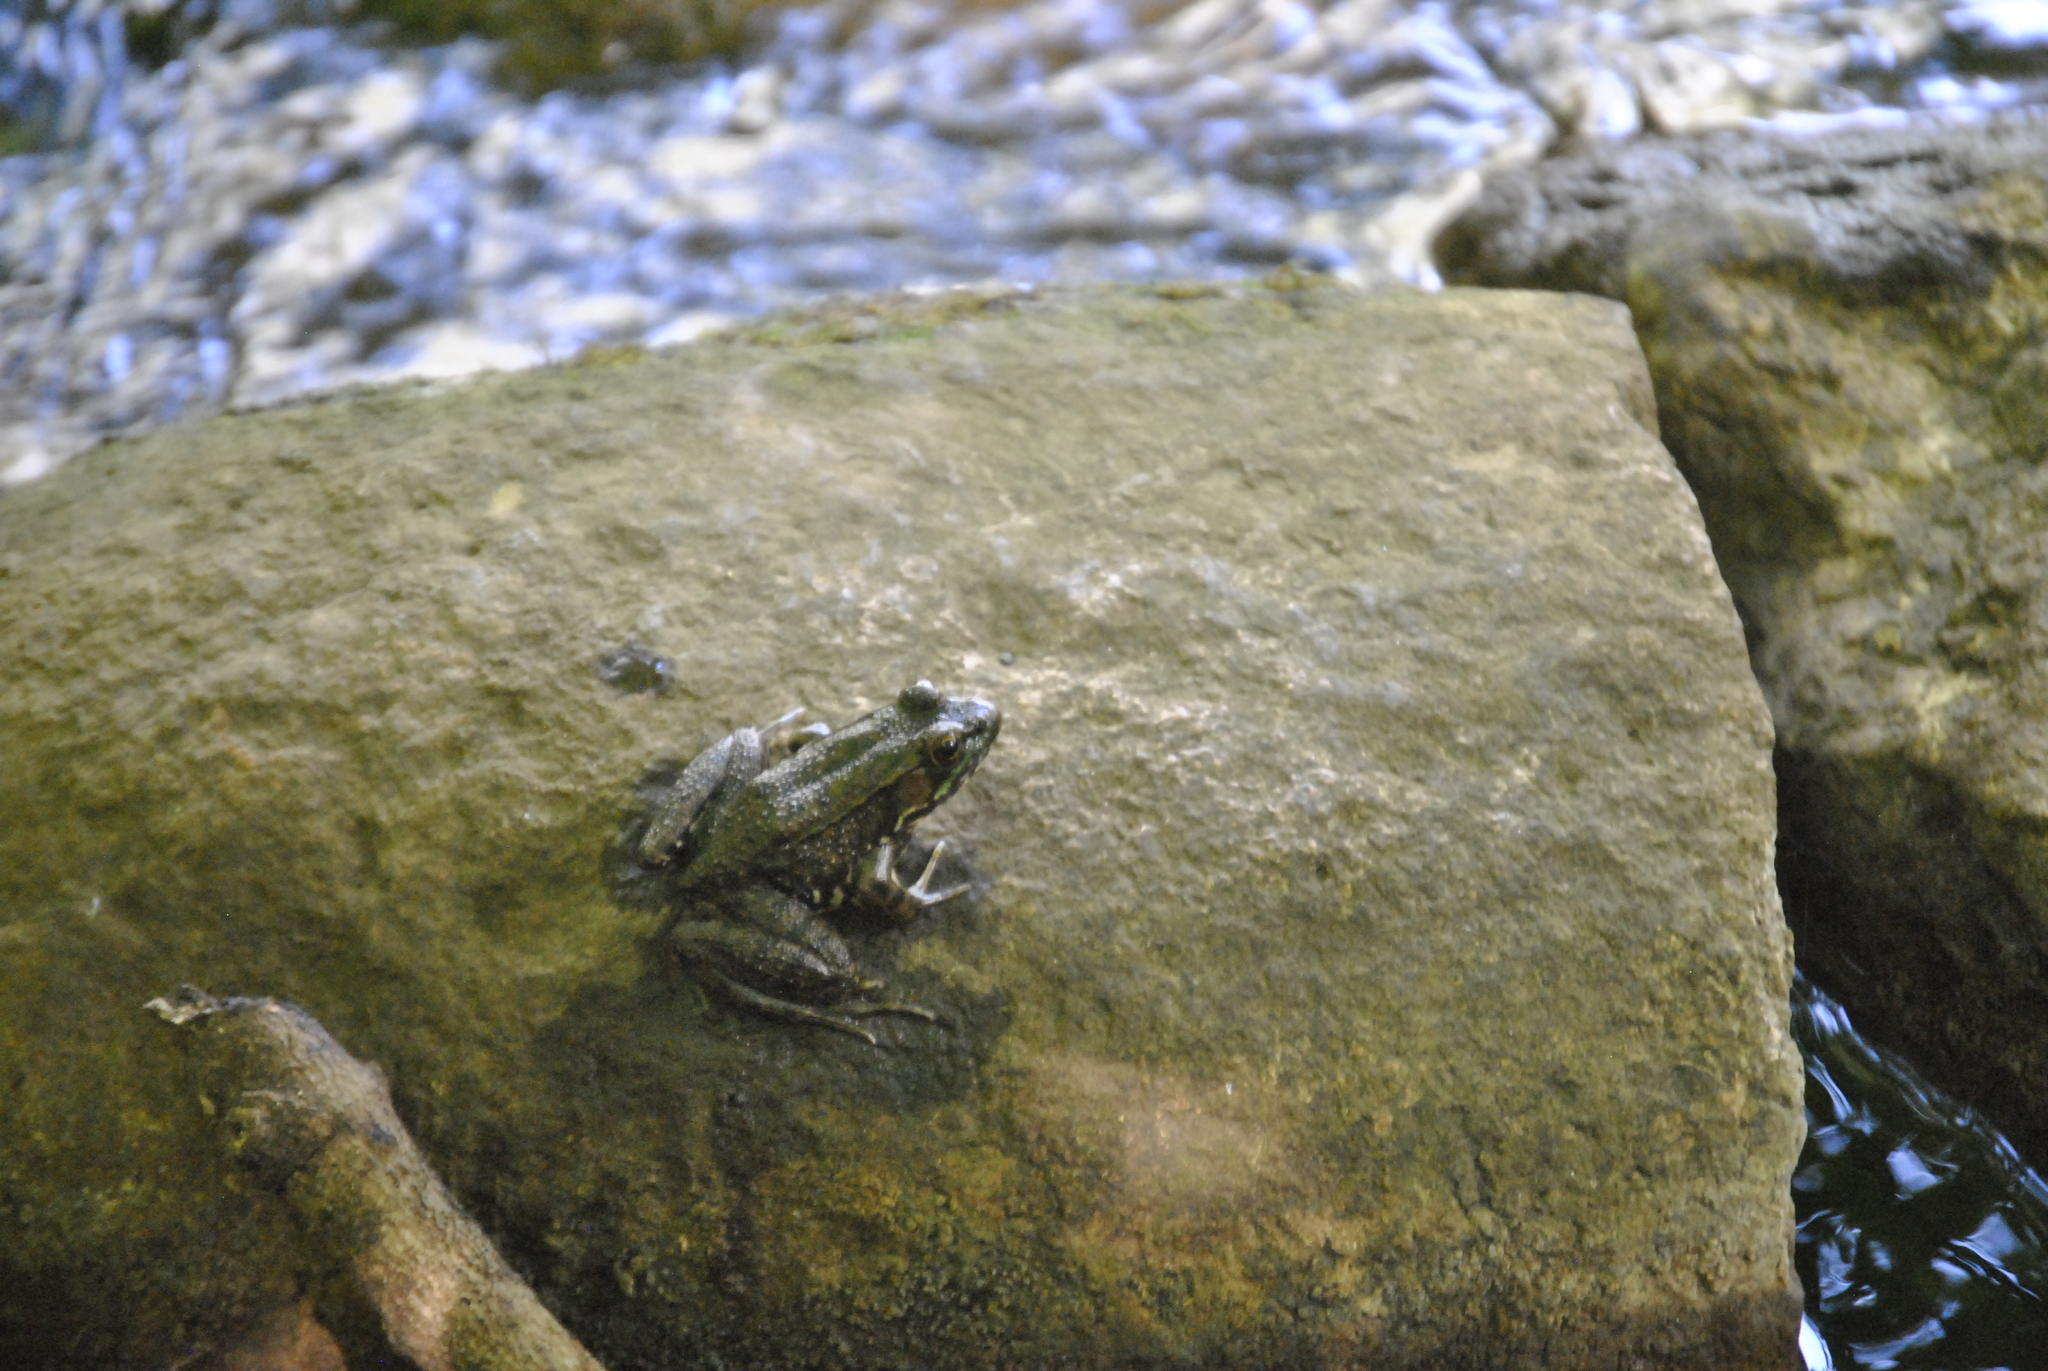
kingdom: Animalia
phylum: Chordata
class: Amphibia
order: Anura
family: Ranidae
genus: Lithobates
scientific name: Lithobates clamitans
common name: Green frog
